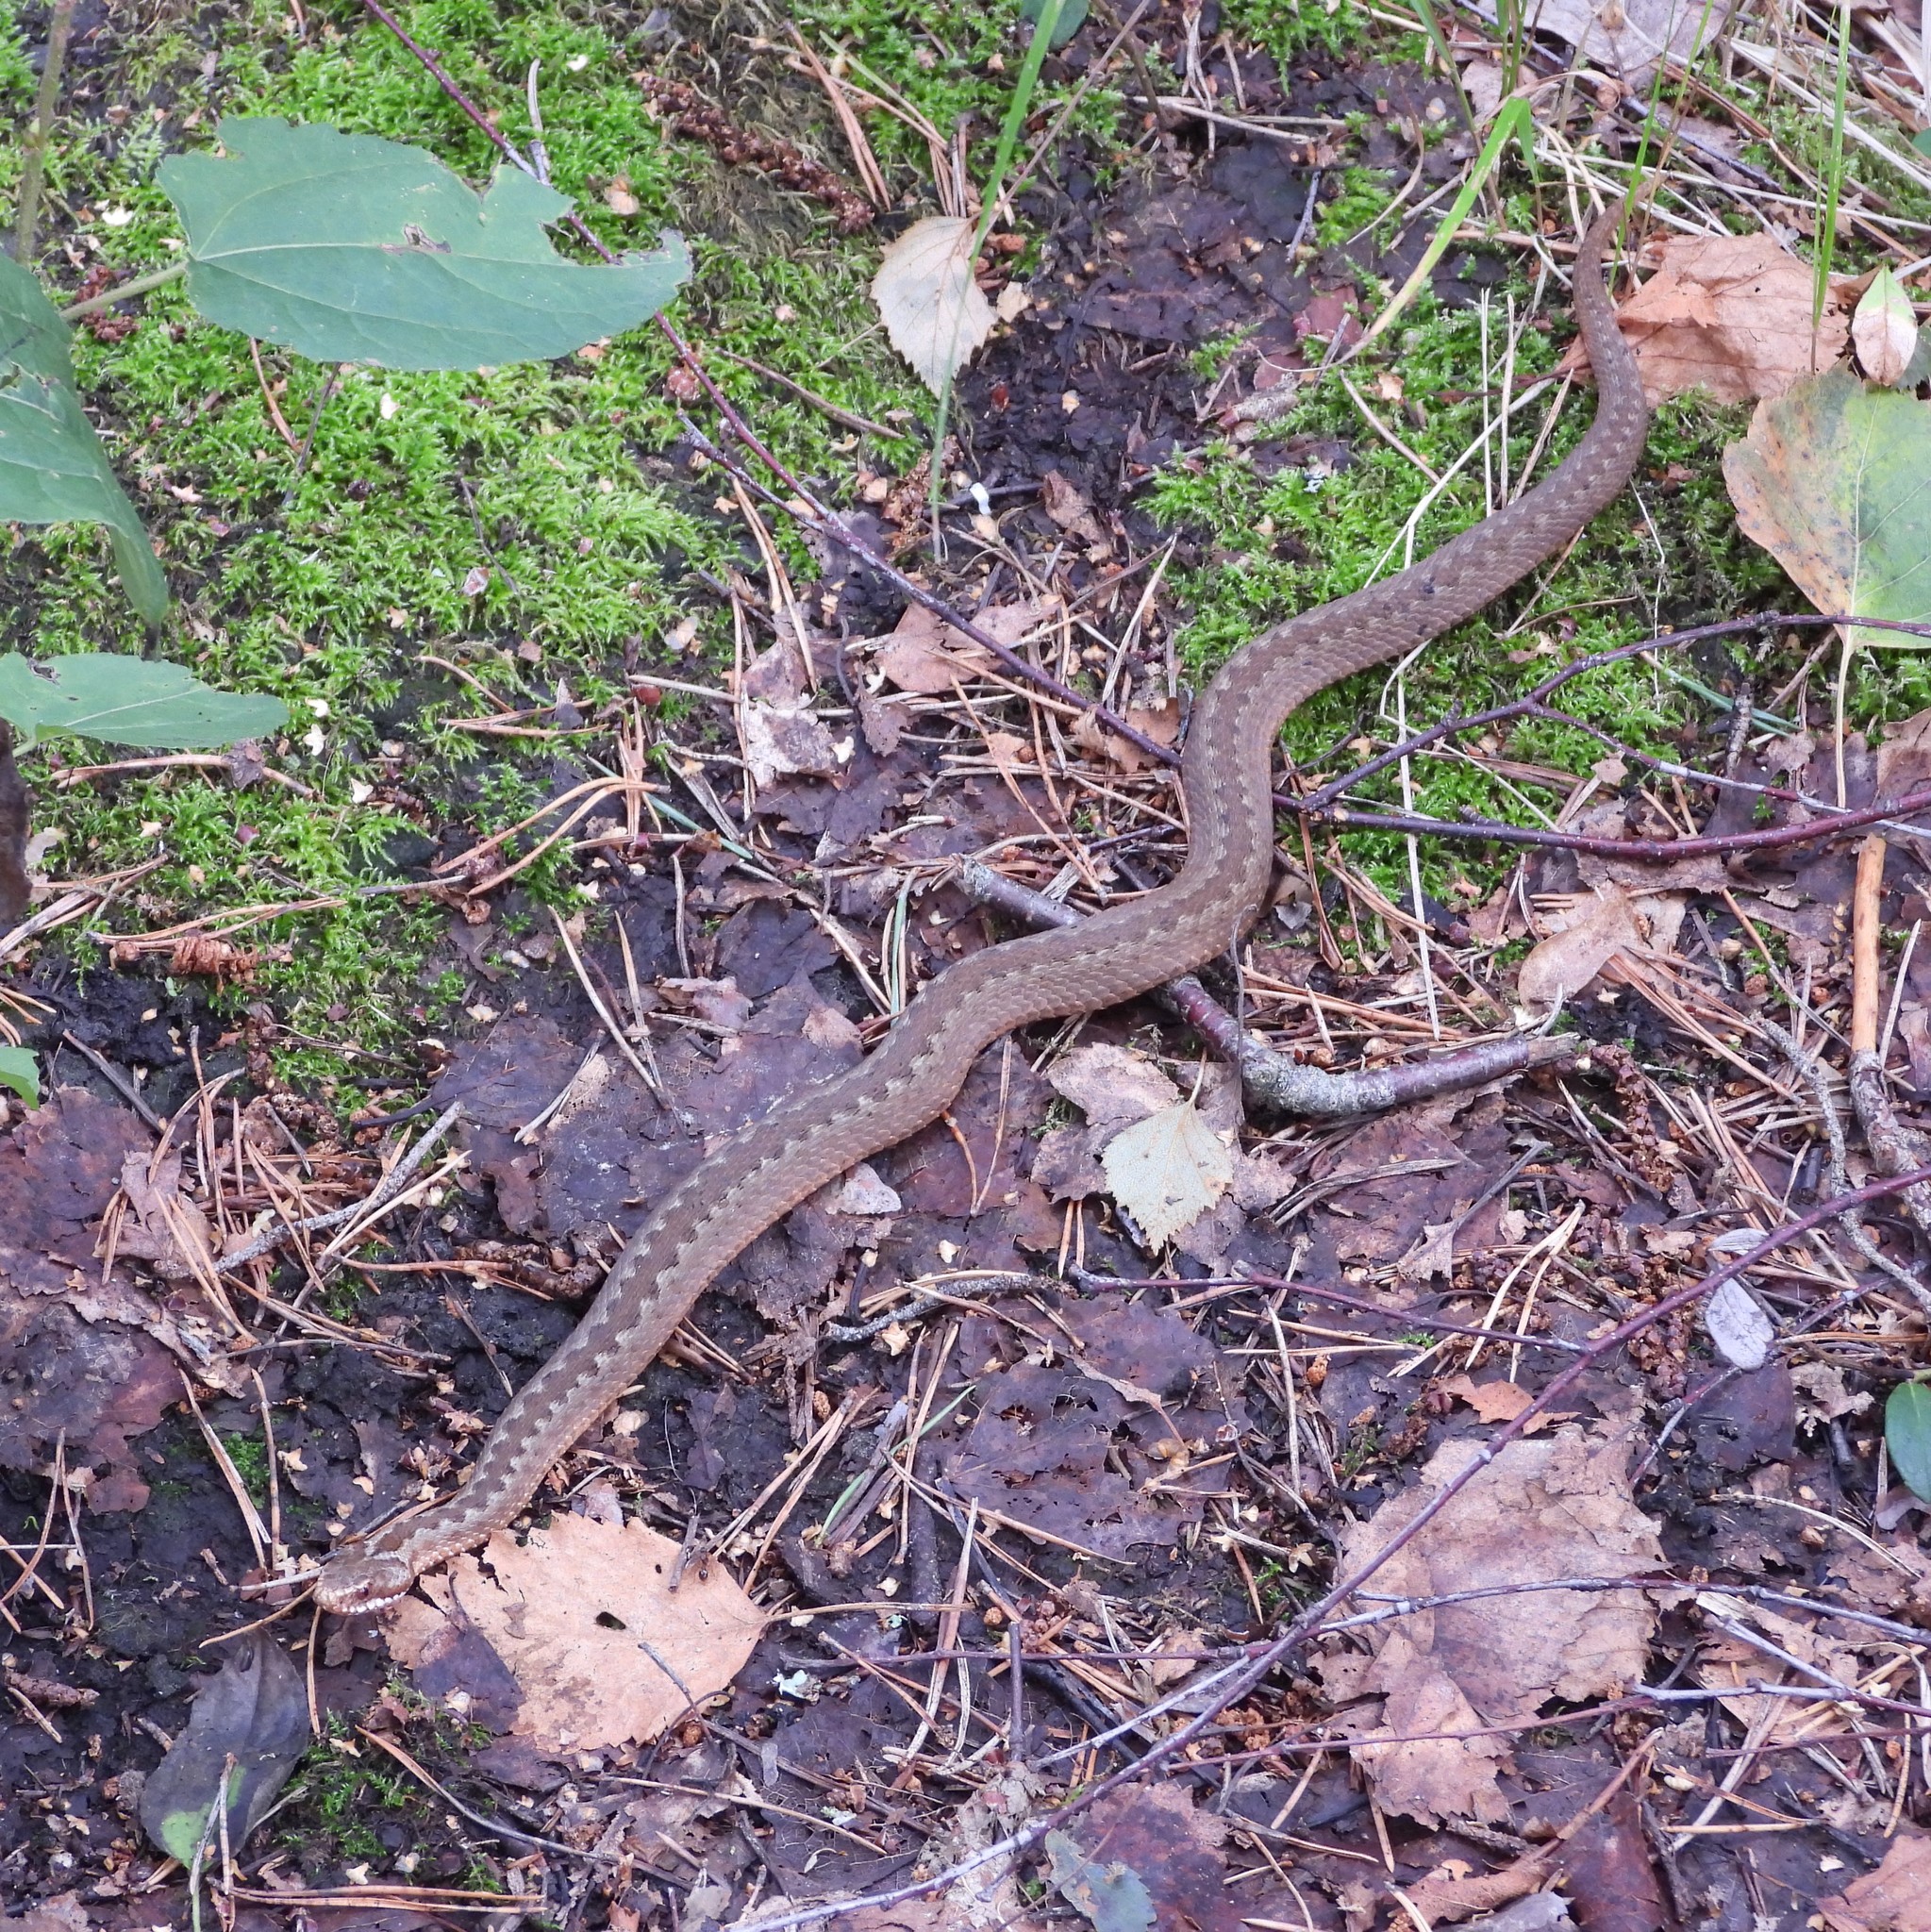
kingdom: Animalia
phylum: Chordata
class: Squamata
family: Viperidae
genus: Vipera
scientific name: Vipera berus
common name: Adder
